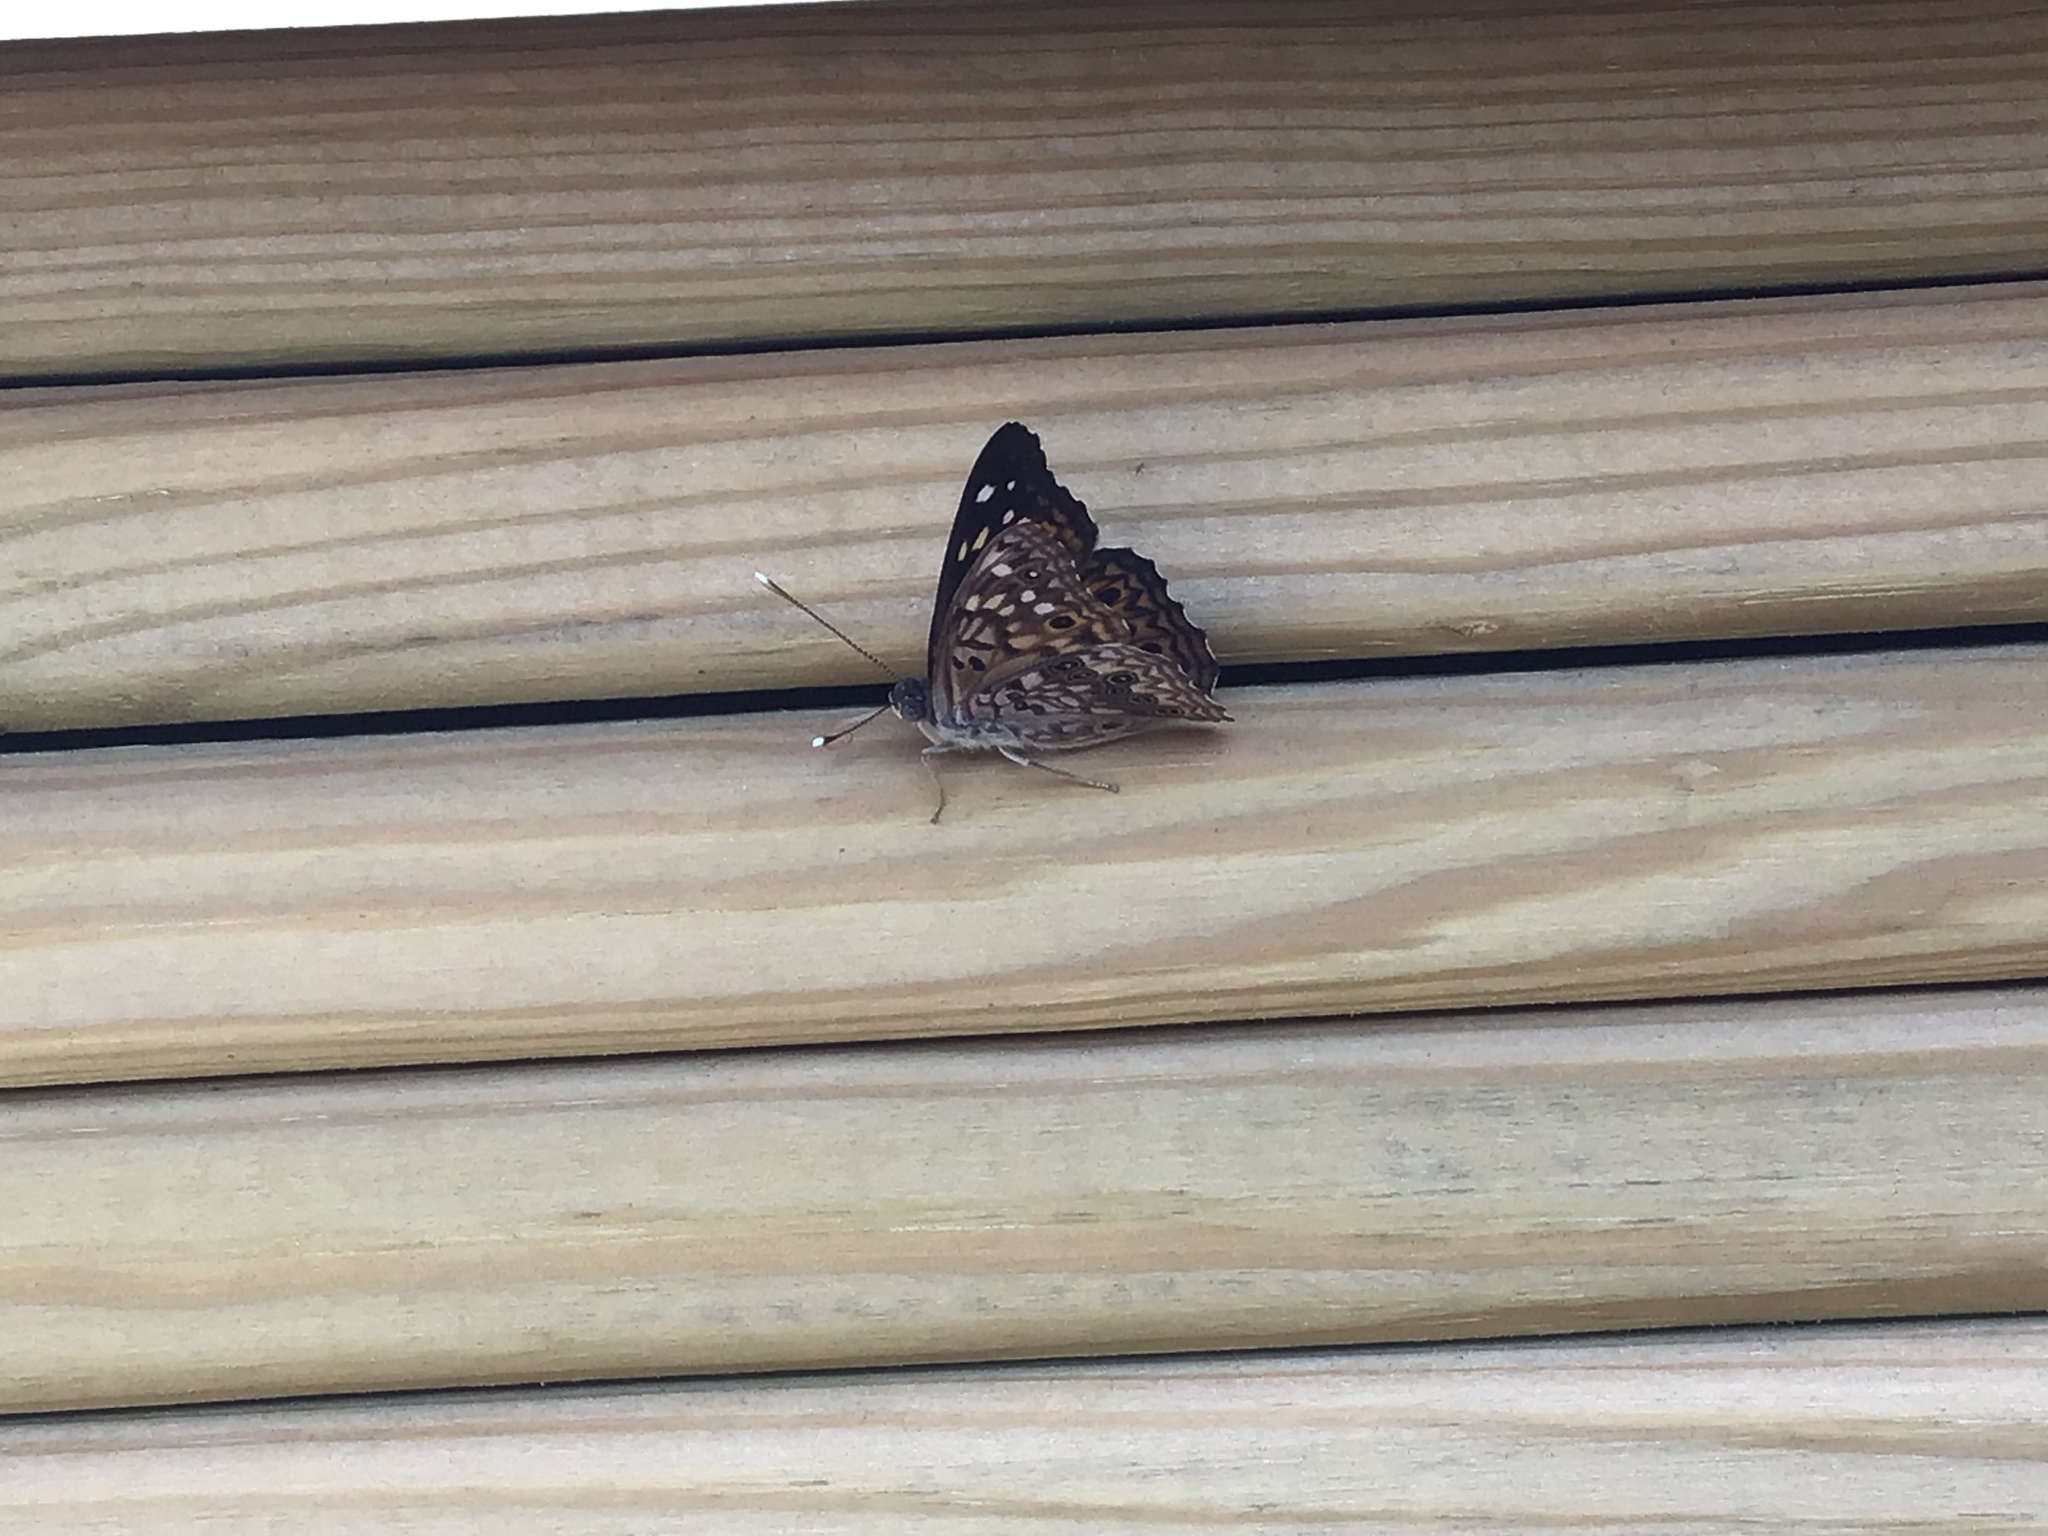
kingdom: Animalia
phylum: Arthropoda
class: Insecta
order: Lepidoptera
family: Nymphalidae
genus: Asterocampa
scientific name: Asterocampa celtis
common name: Hackberry emperor
